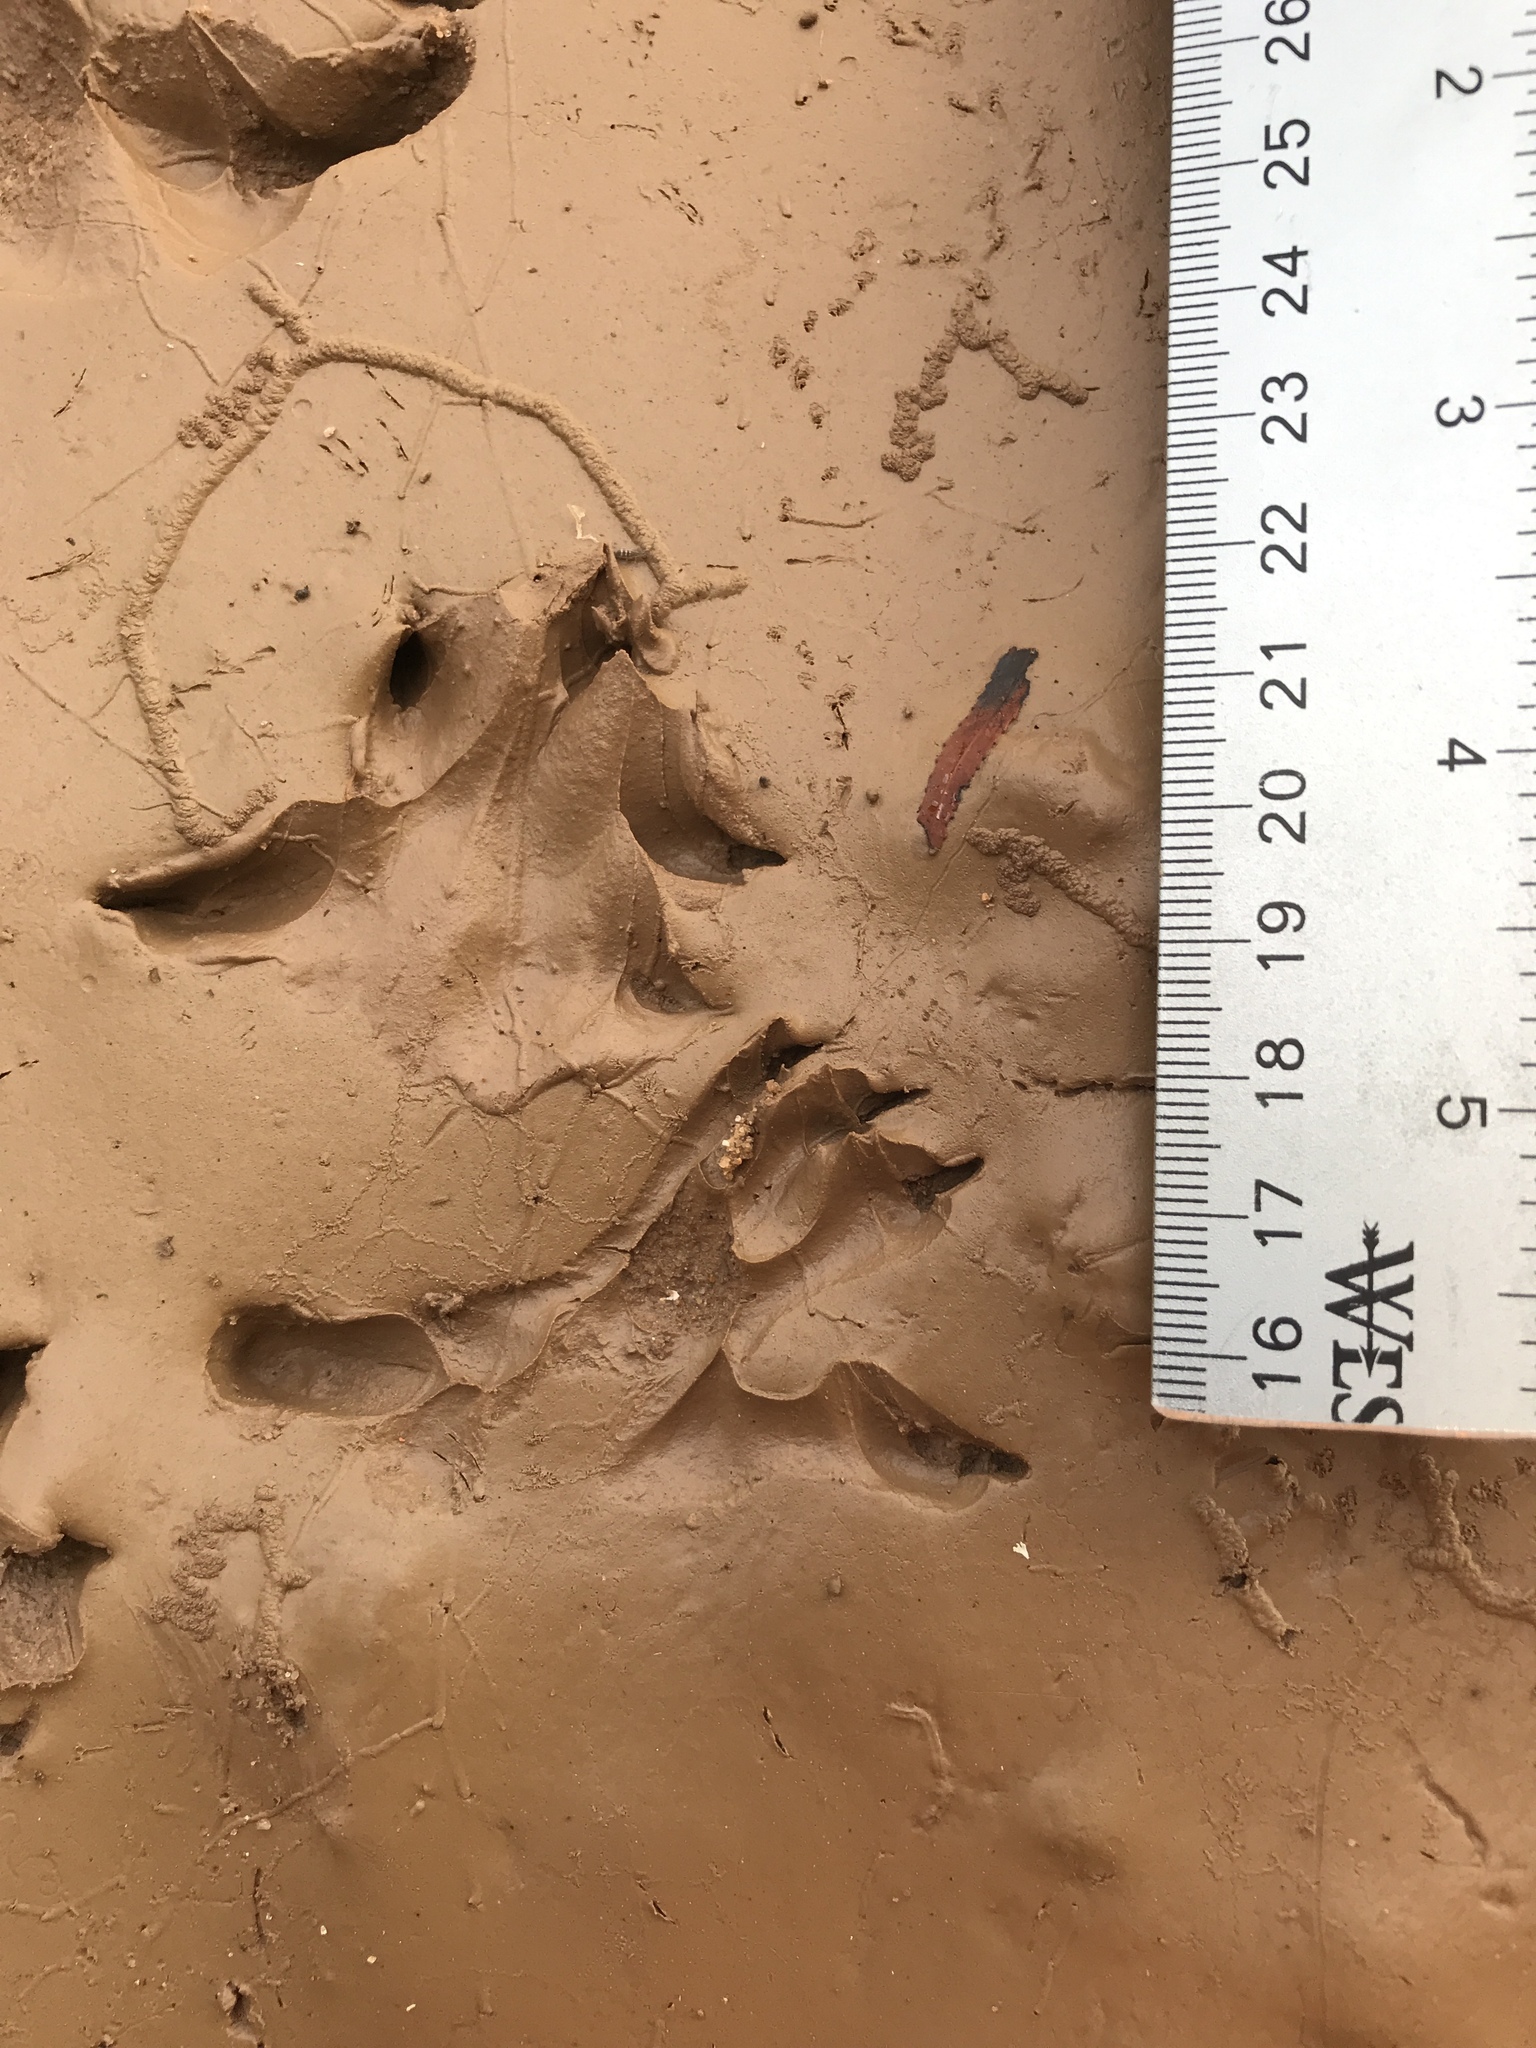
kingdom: Animalia
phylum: Chordata
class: Mammalia
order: Didelphimorphia
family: Didelphidae
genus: Didelphis
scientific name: Didelphis virginiana
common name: Virginia opossum
